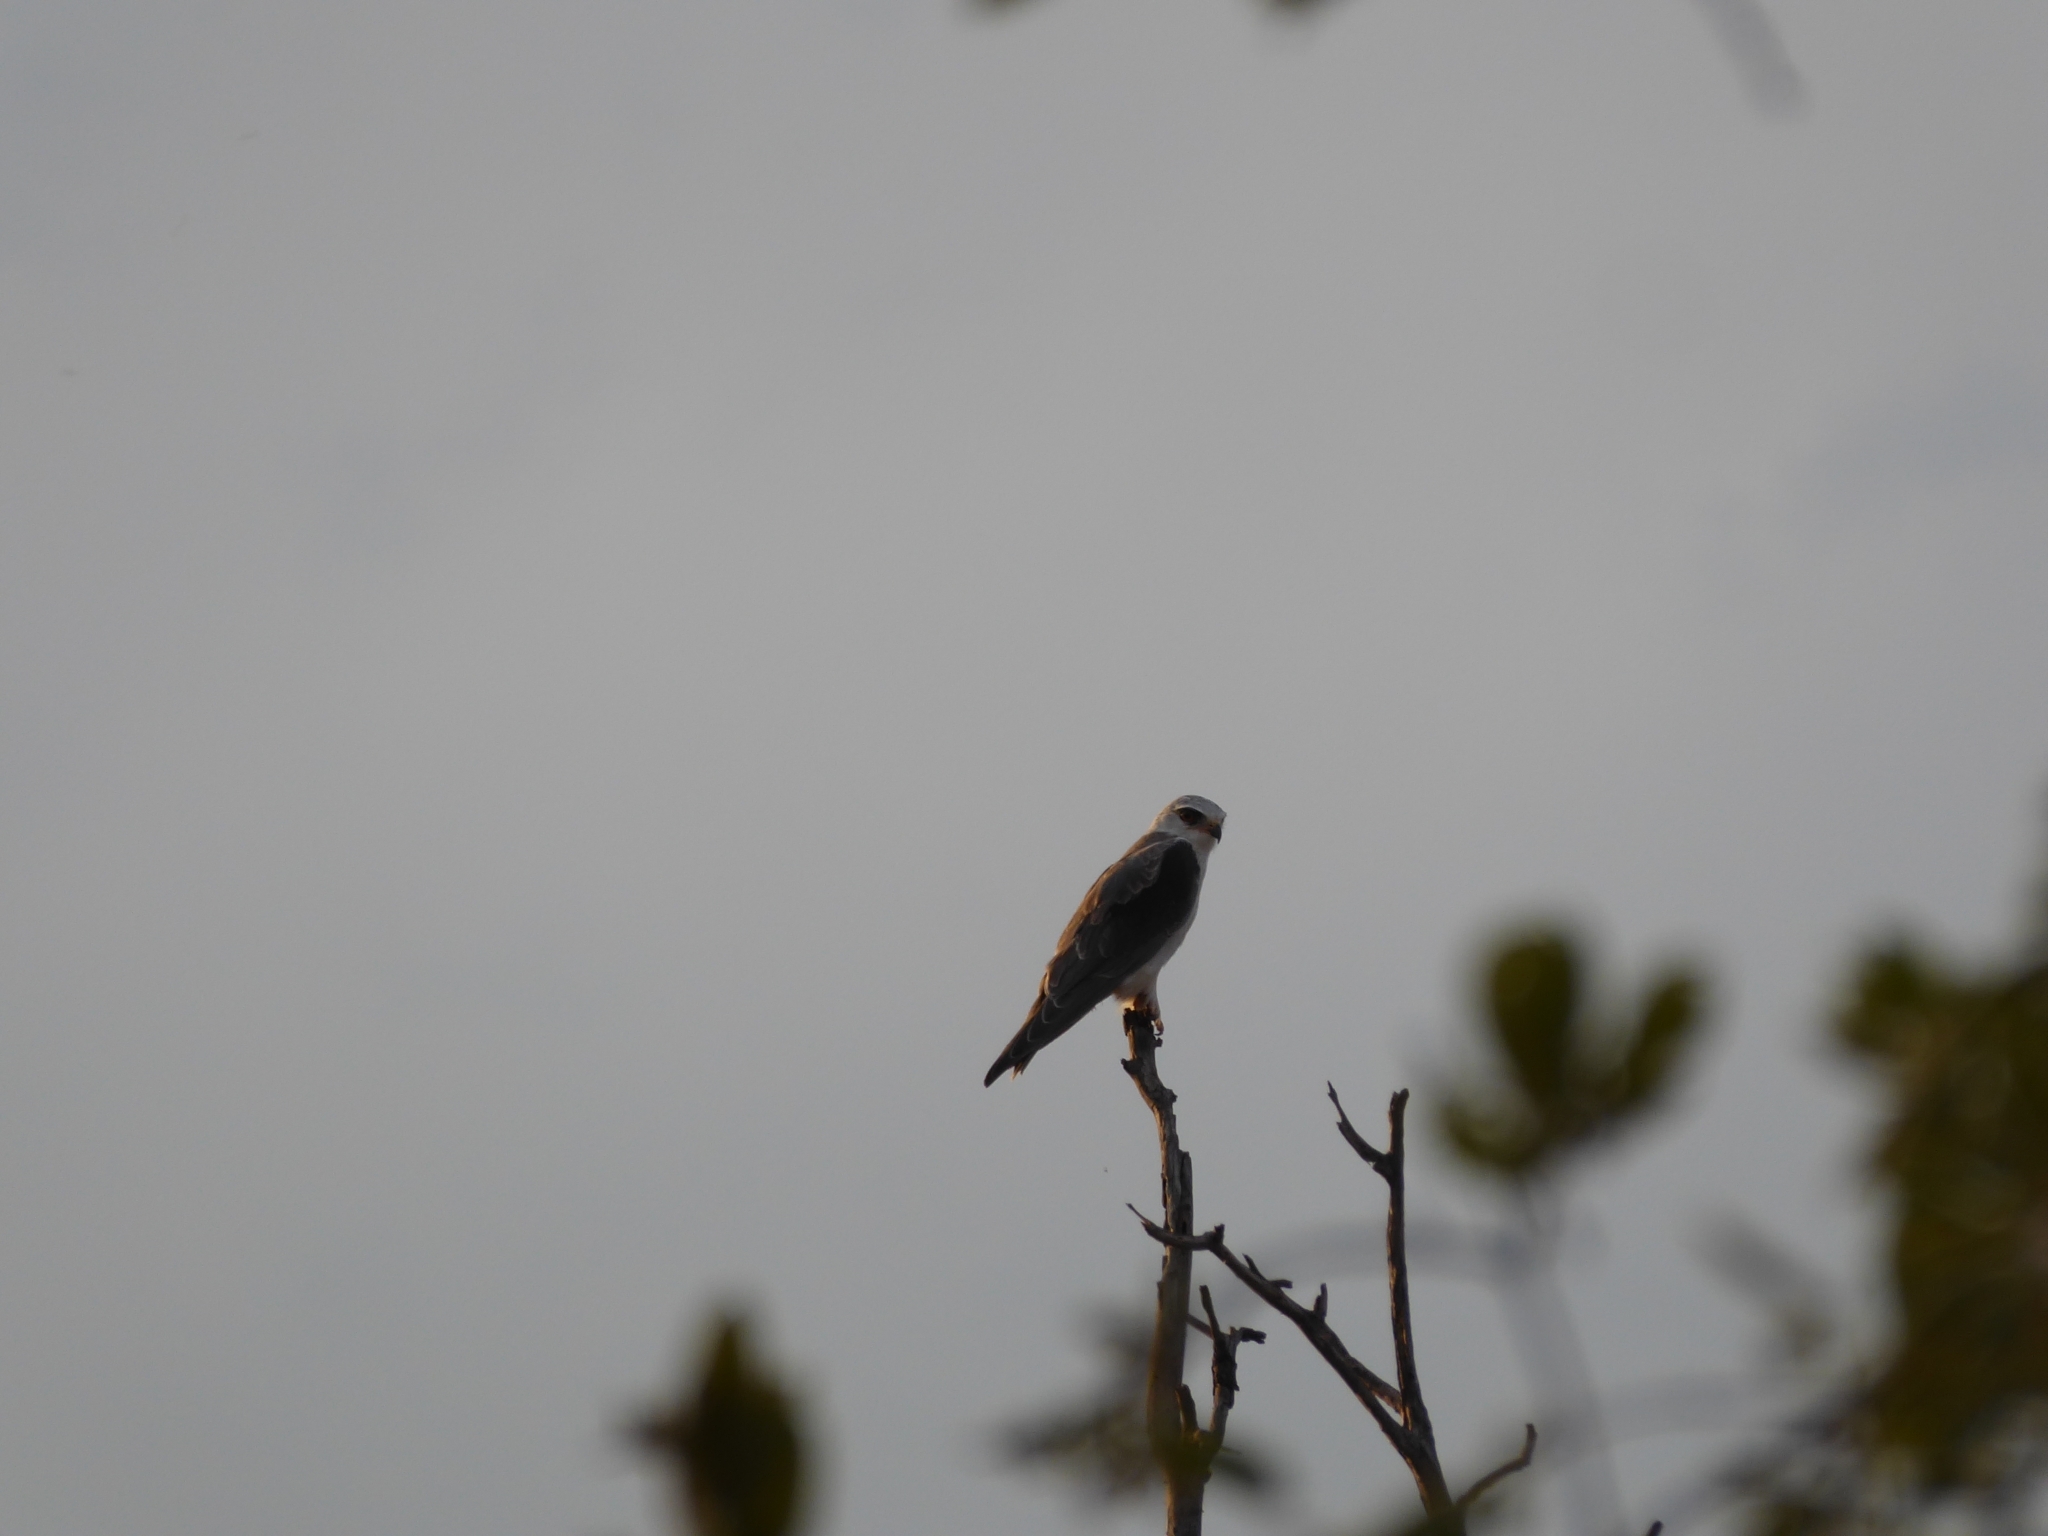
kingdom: Animalia
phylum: Chordata
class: Aves
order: Accipitriformes
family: Accipitridae
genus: Elanus
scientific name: Elanus caeruleus
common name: Black-winged kite
